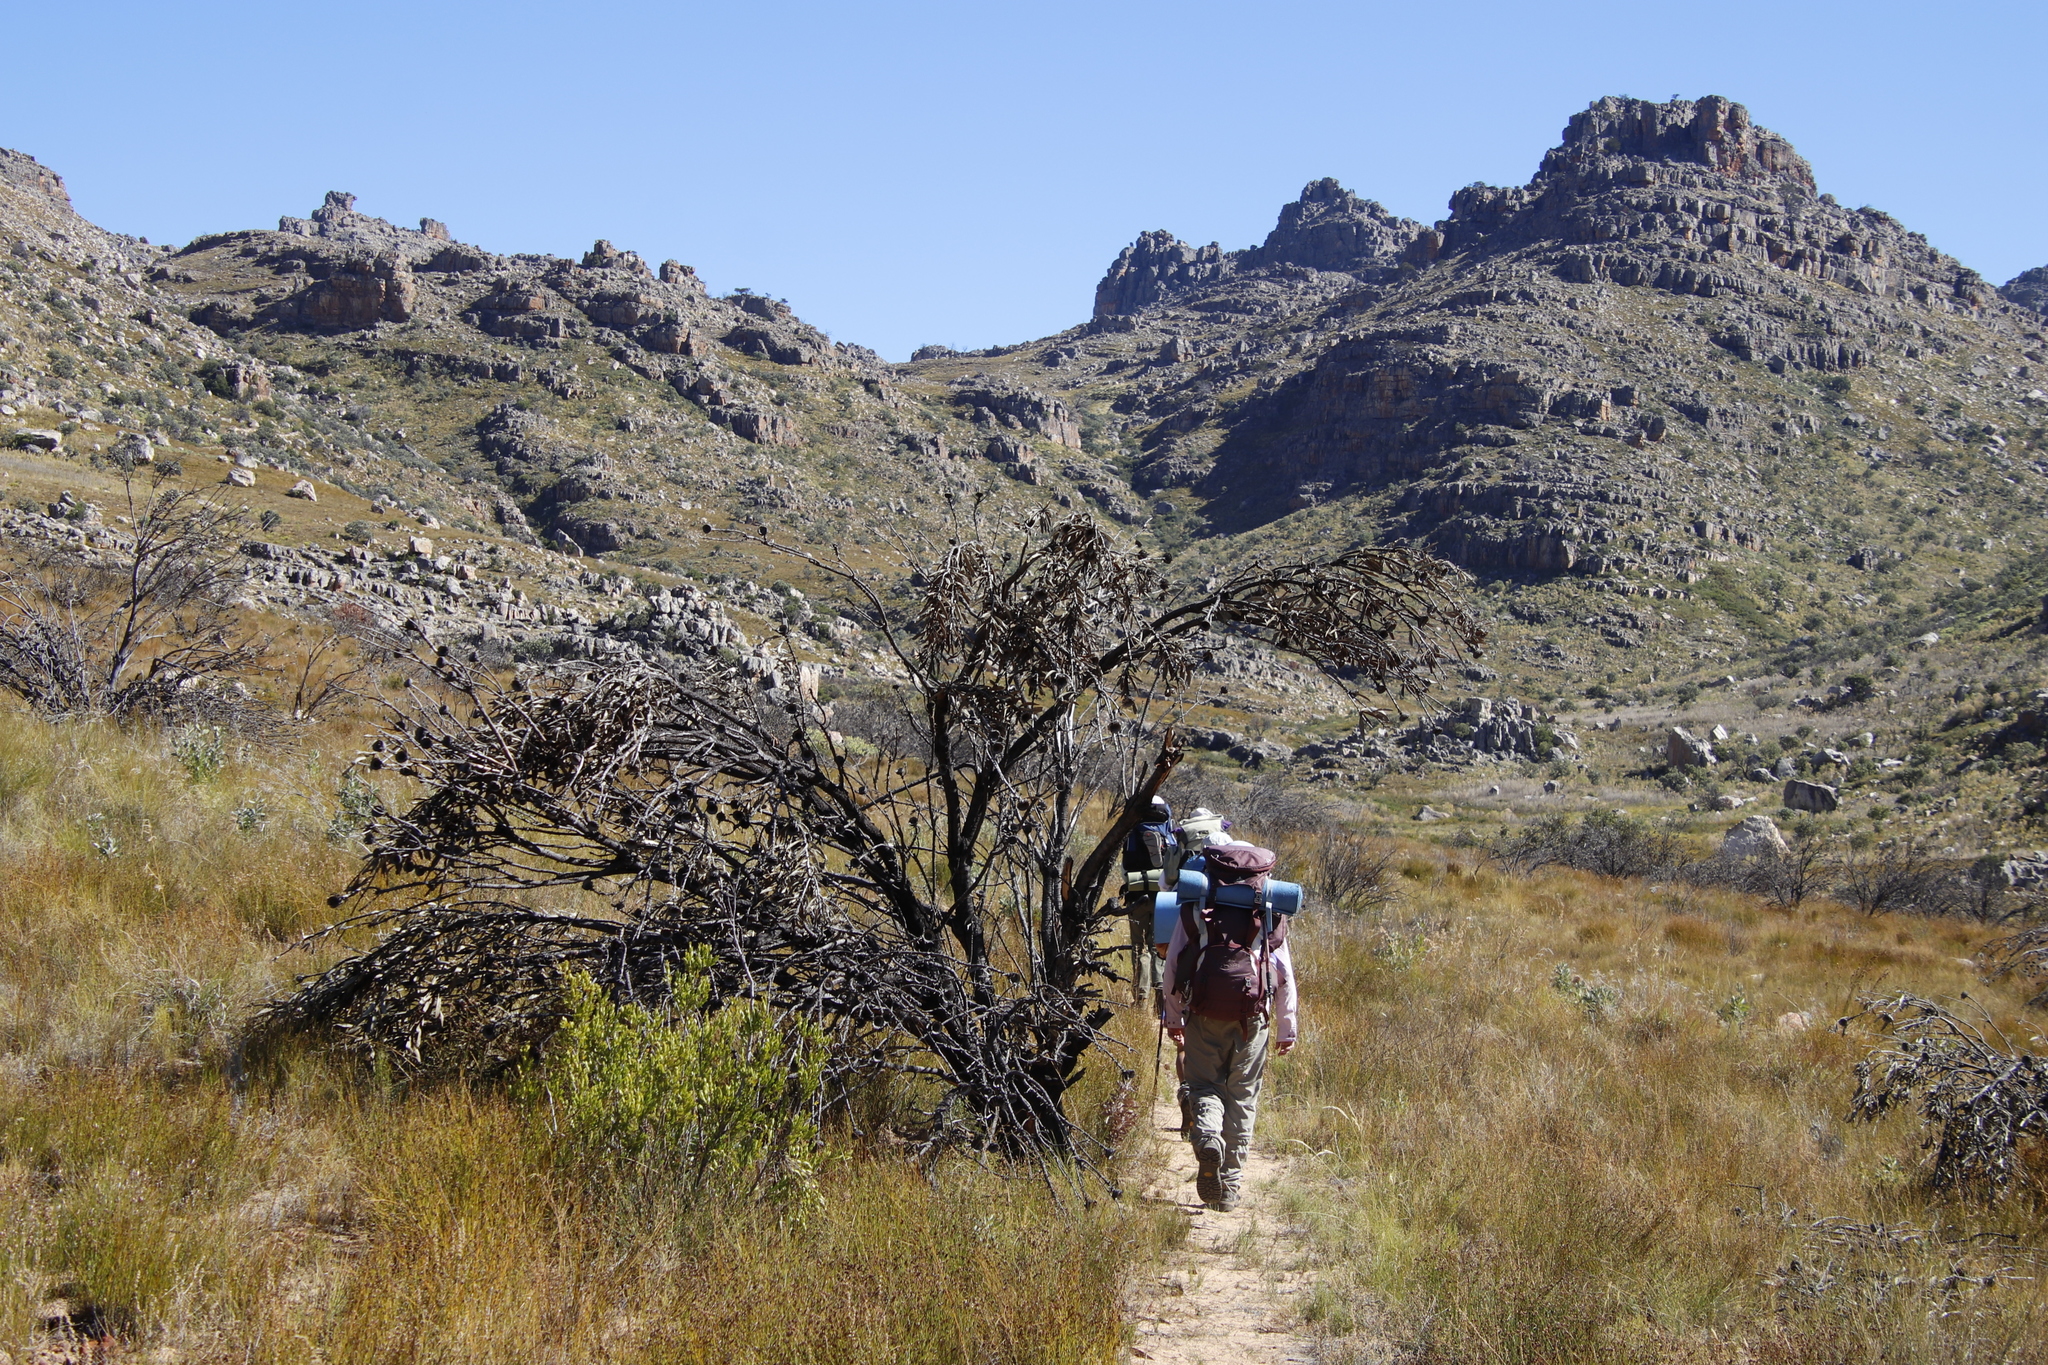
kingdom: Plantae
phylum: Tracheophyta
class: Magnoliopsida
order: Proteales
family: Proteaceae
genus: Protea
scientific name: Protea laurifolia
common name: Grey-leaf sugarbsh
